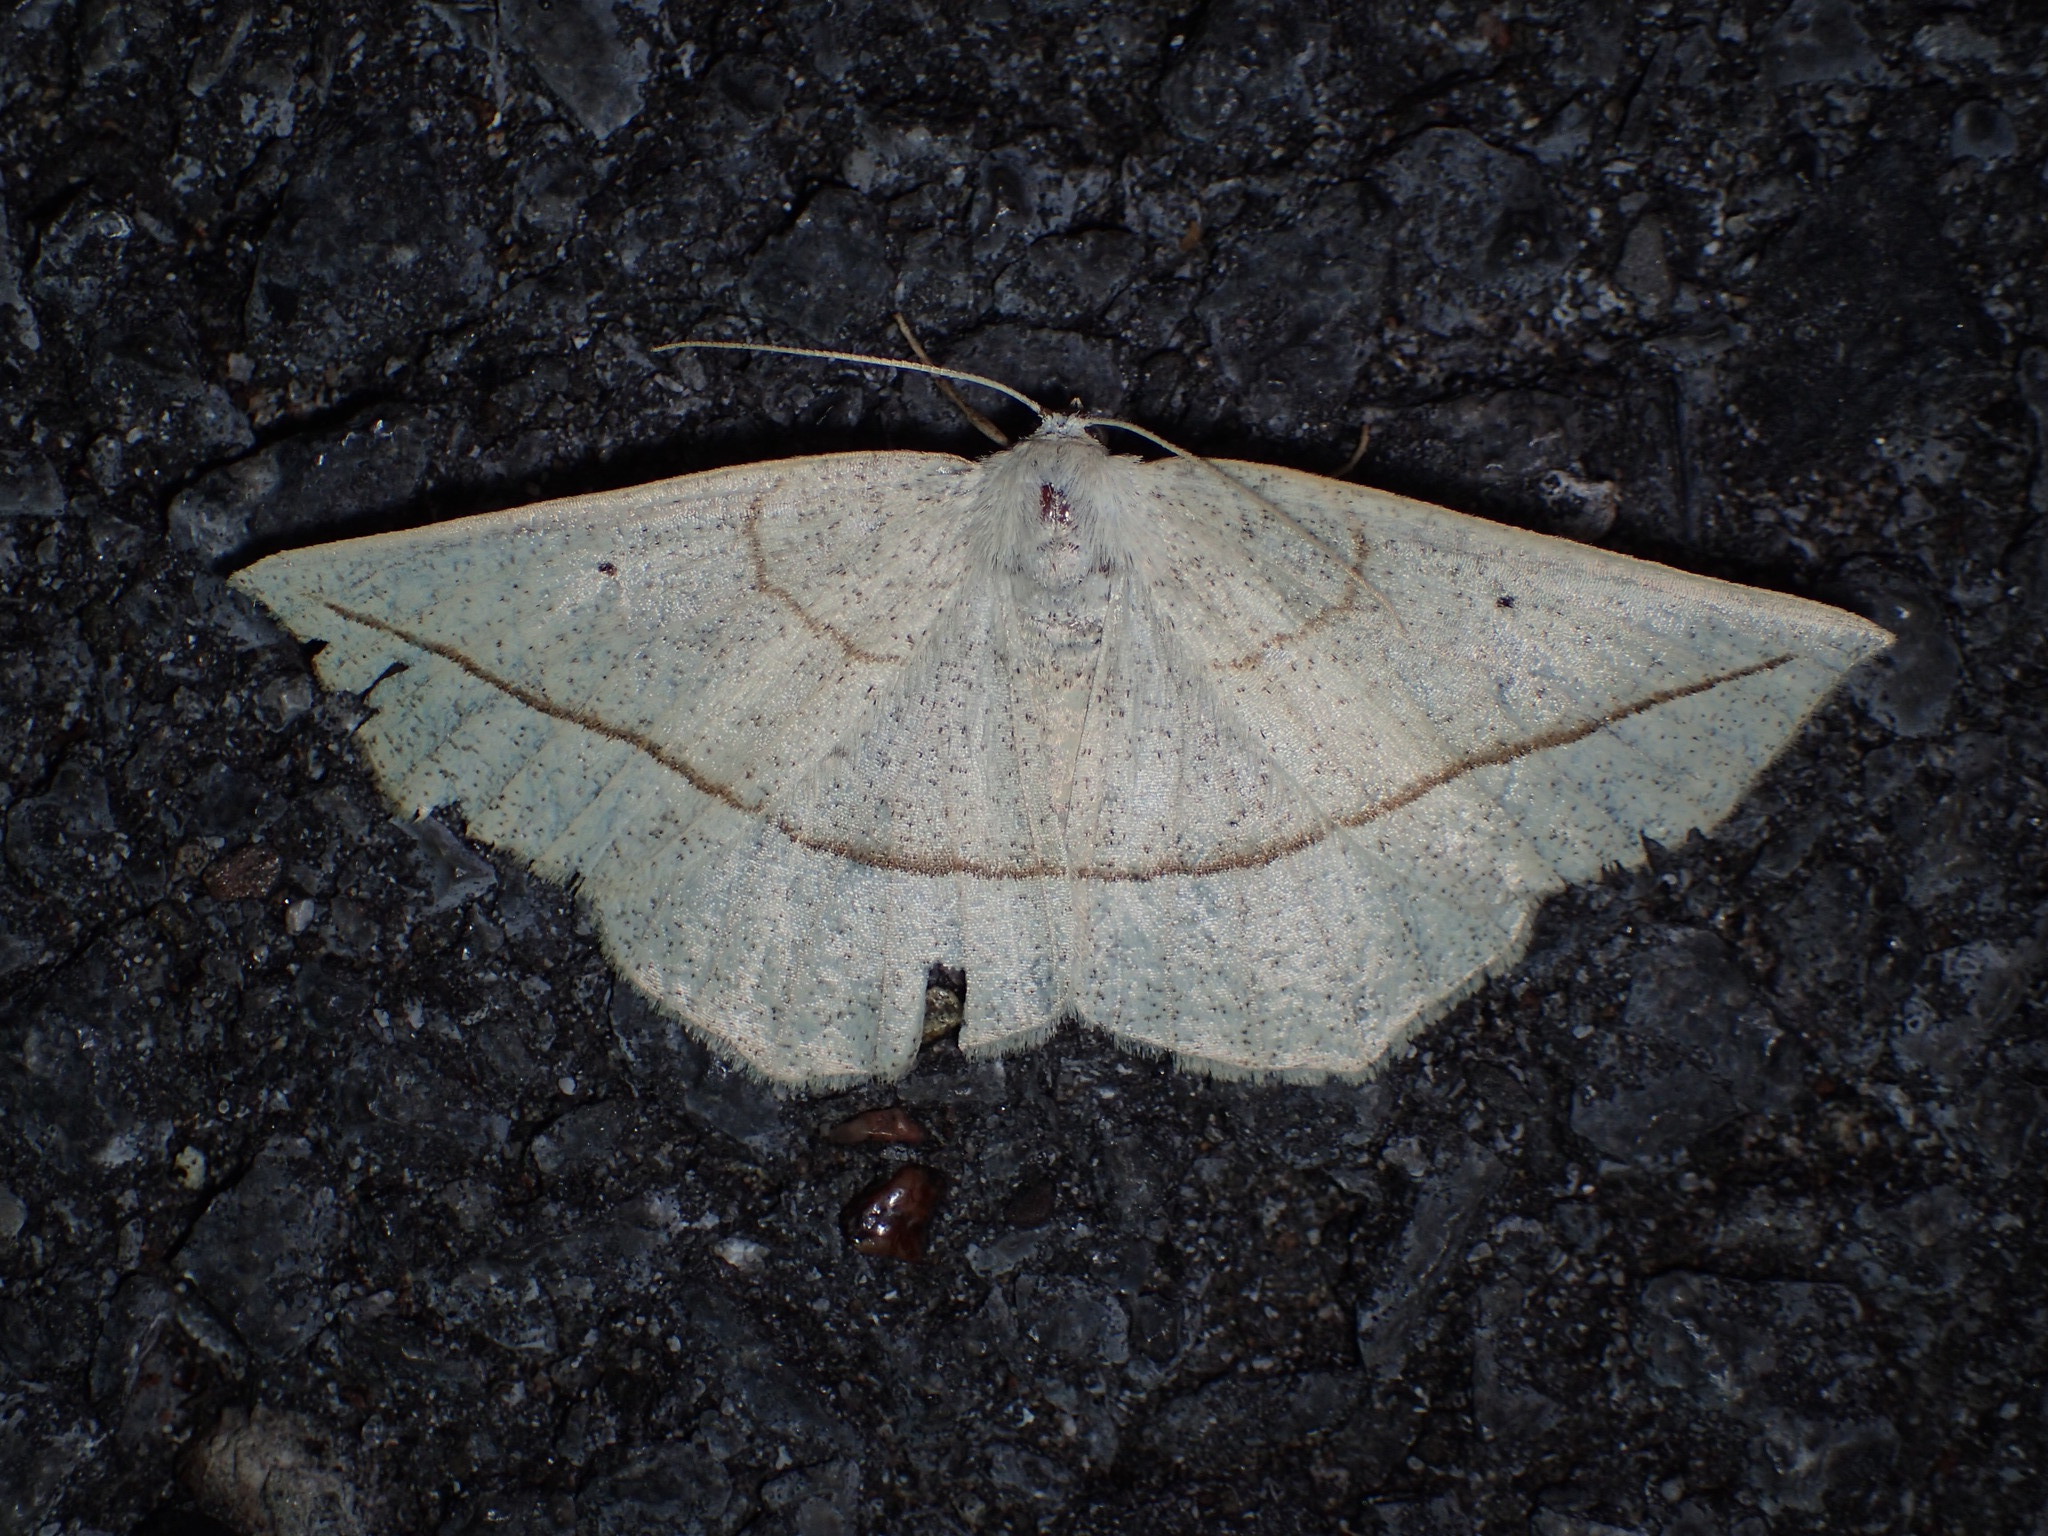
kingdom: Animalia
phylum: Arthropoda
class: Insecta
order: Lepidoptera
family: Geometridae
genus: Eusarca
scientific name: Eusarca confusaria
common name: Confused eusarca
